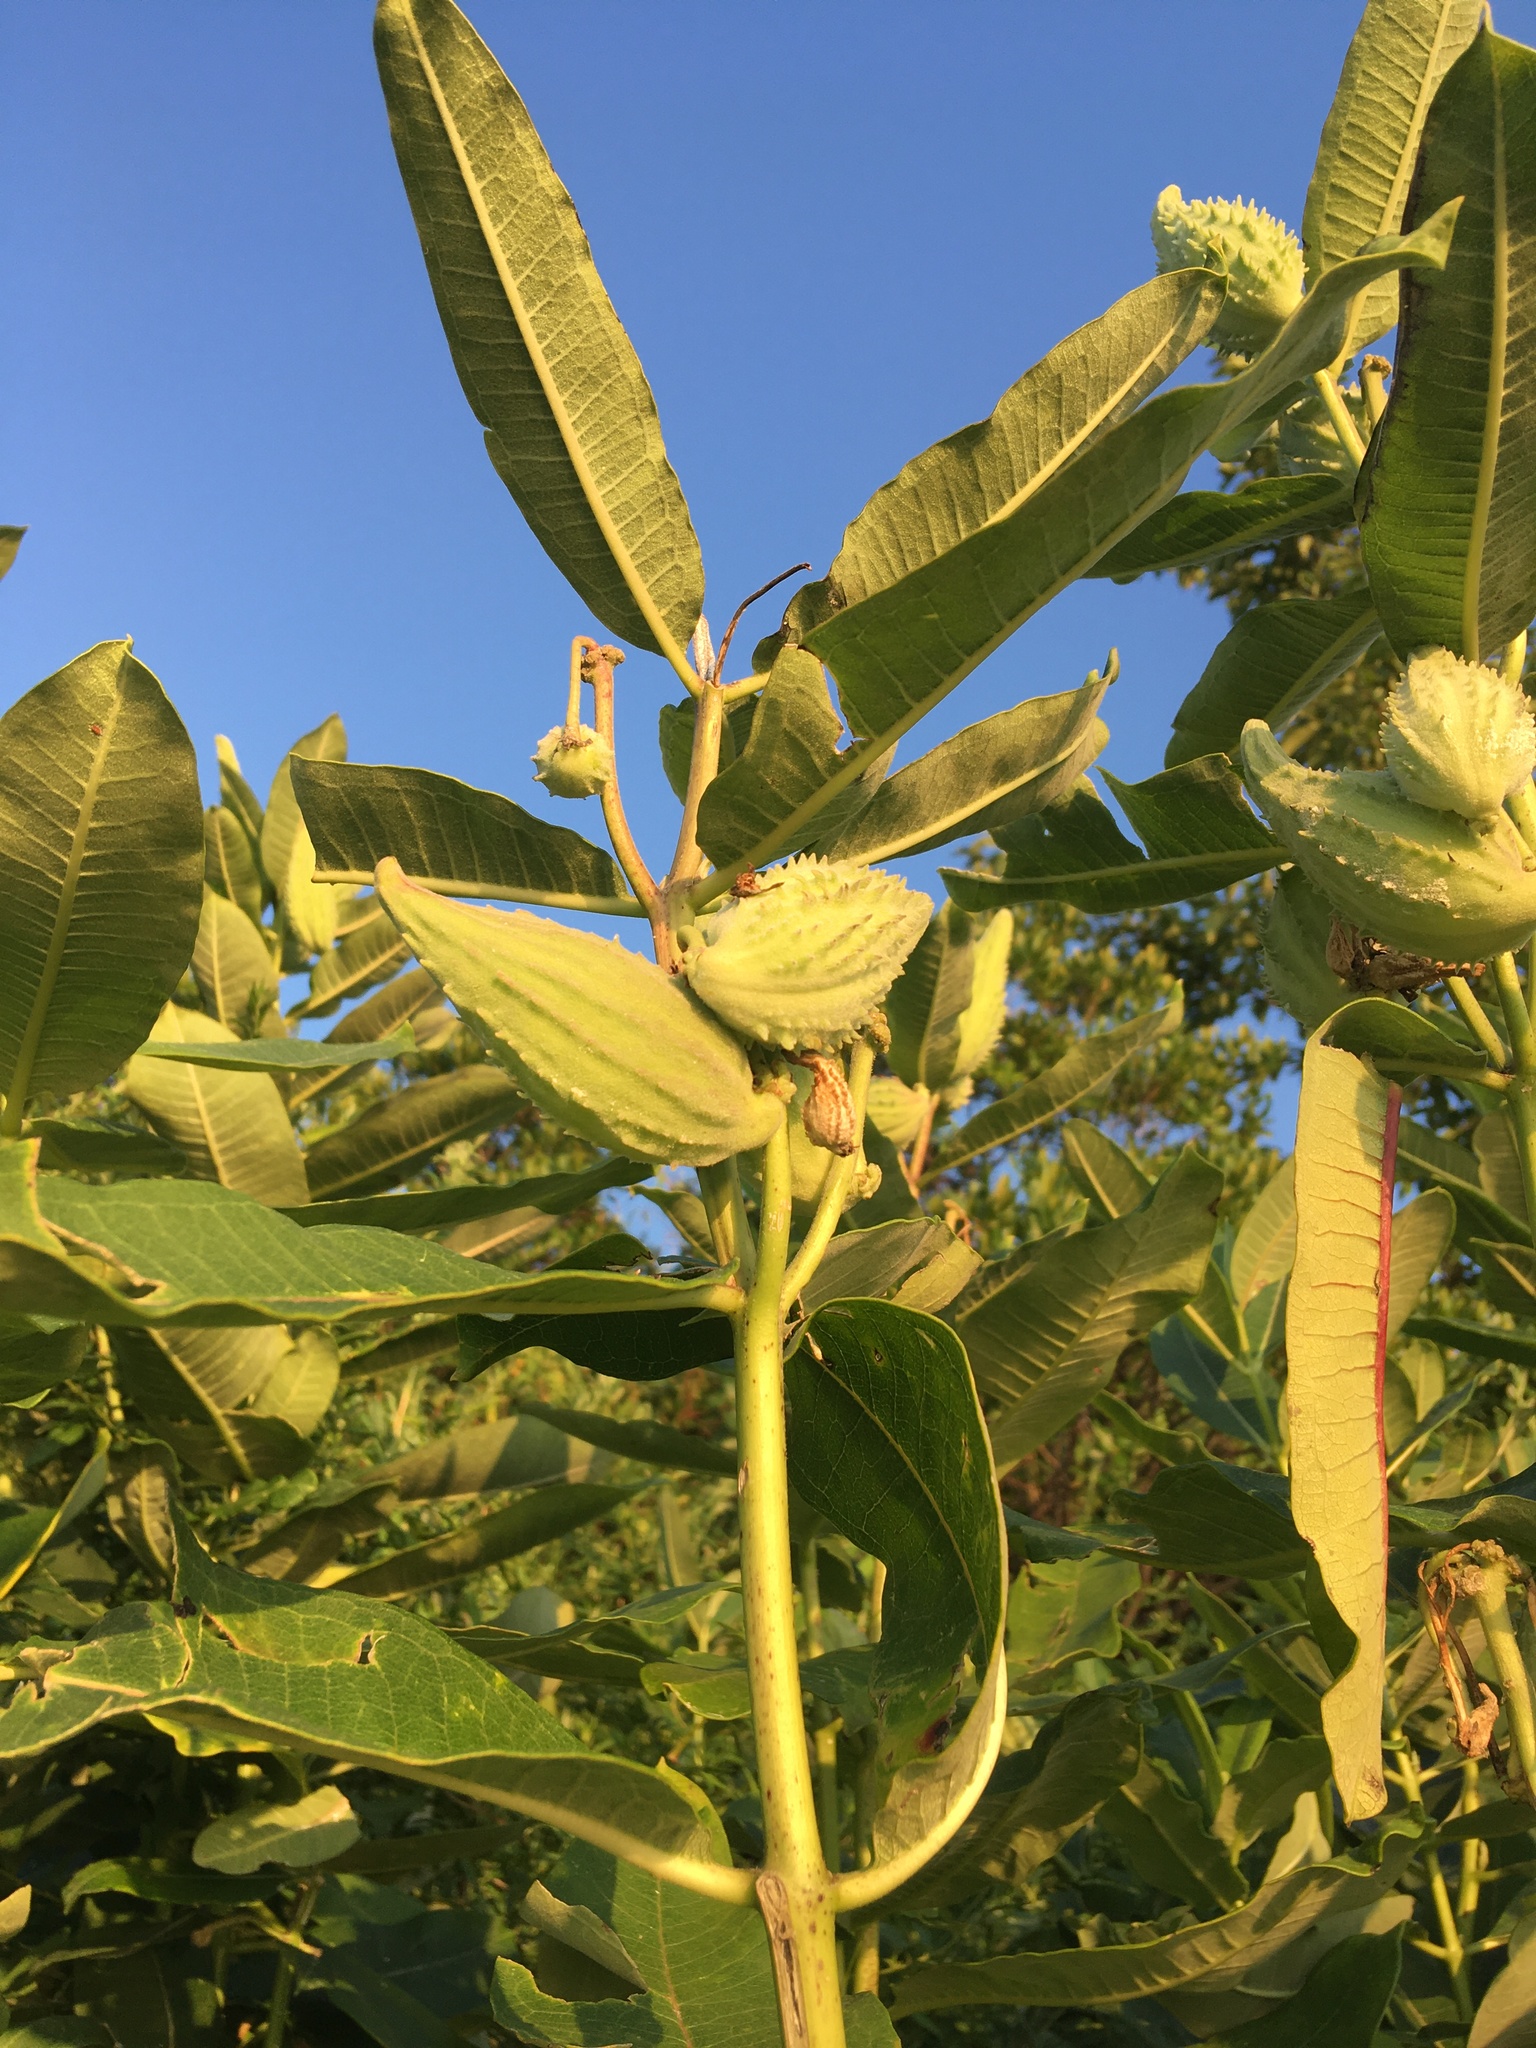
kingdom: Plantae
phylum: Tracheophyta
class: Magnoliopsida
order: Gentianales
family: Apocynaceae
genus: Asclepias
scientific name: Asclepias syriaca
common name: Common milkweed
